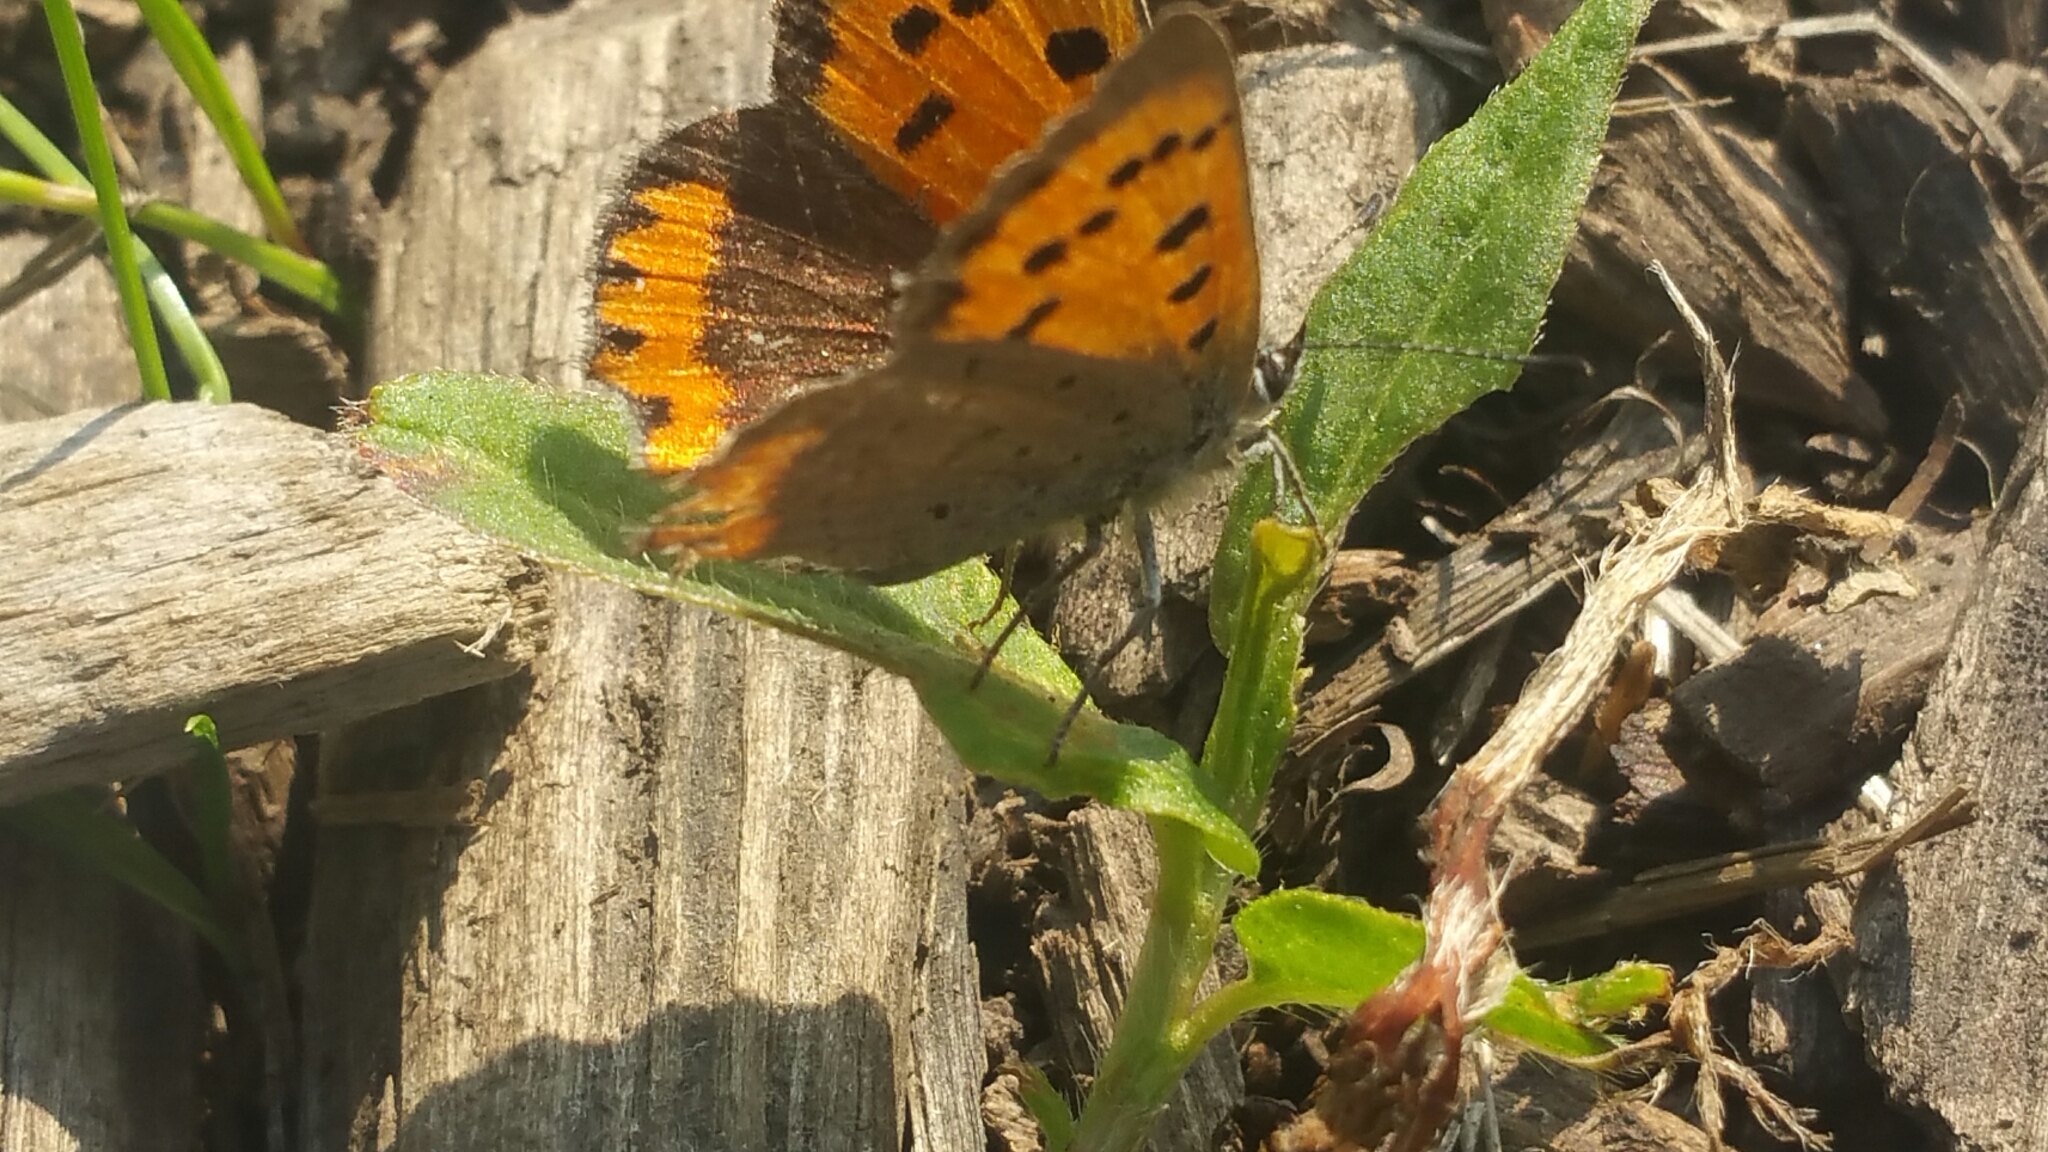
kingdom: Animalia
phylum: Arthropoda
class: Insecta
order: Lepidoptera
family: Lycaenidae
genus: Lycaena
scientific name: Lycaena phlaeas
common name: Small copper
